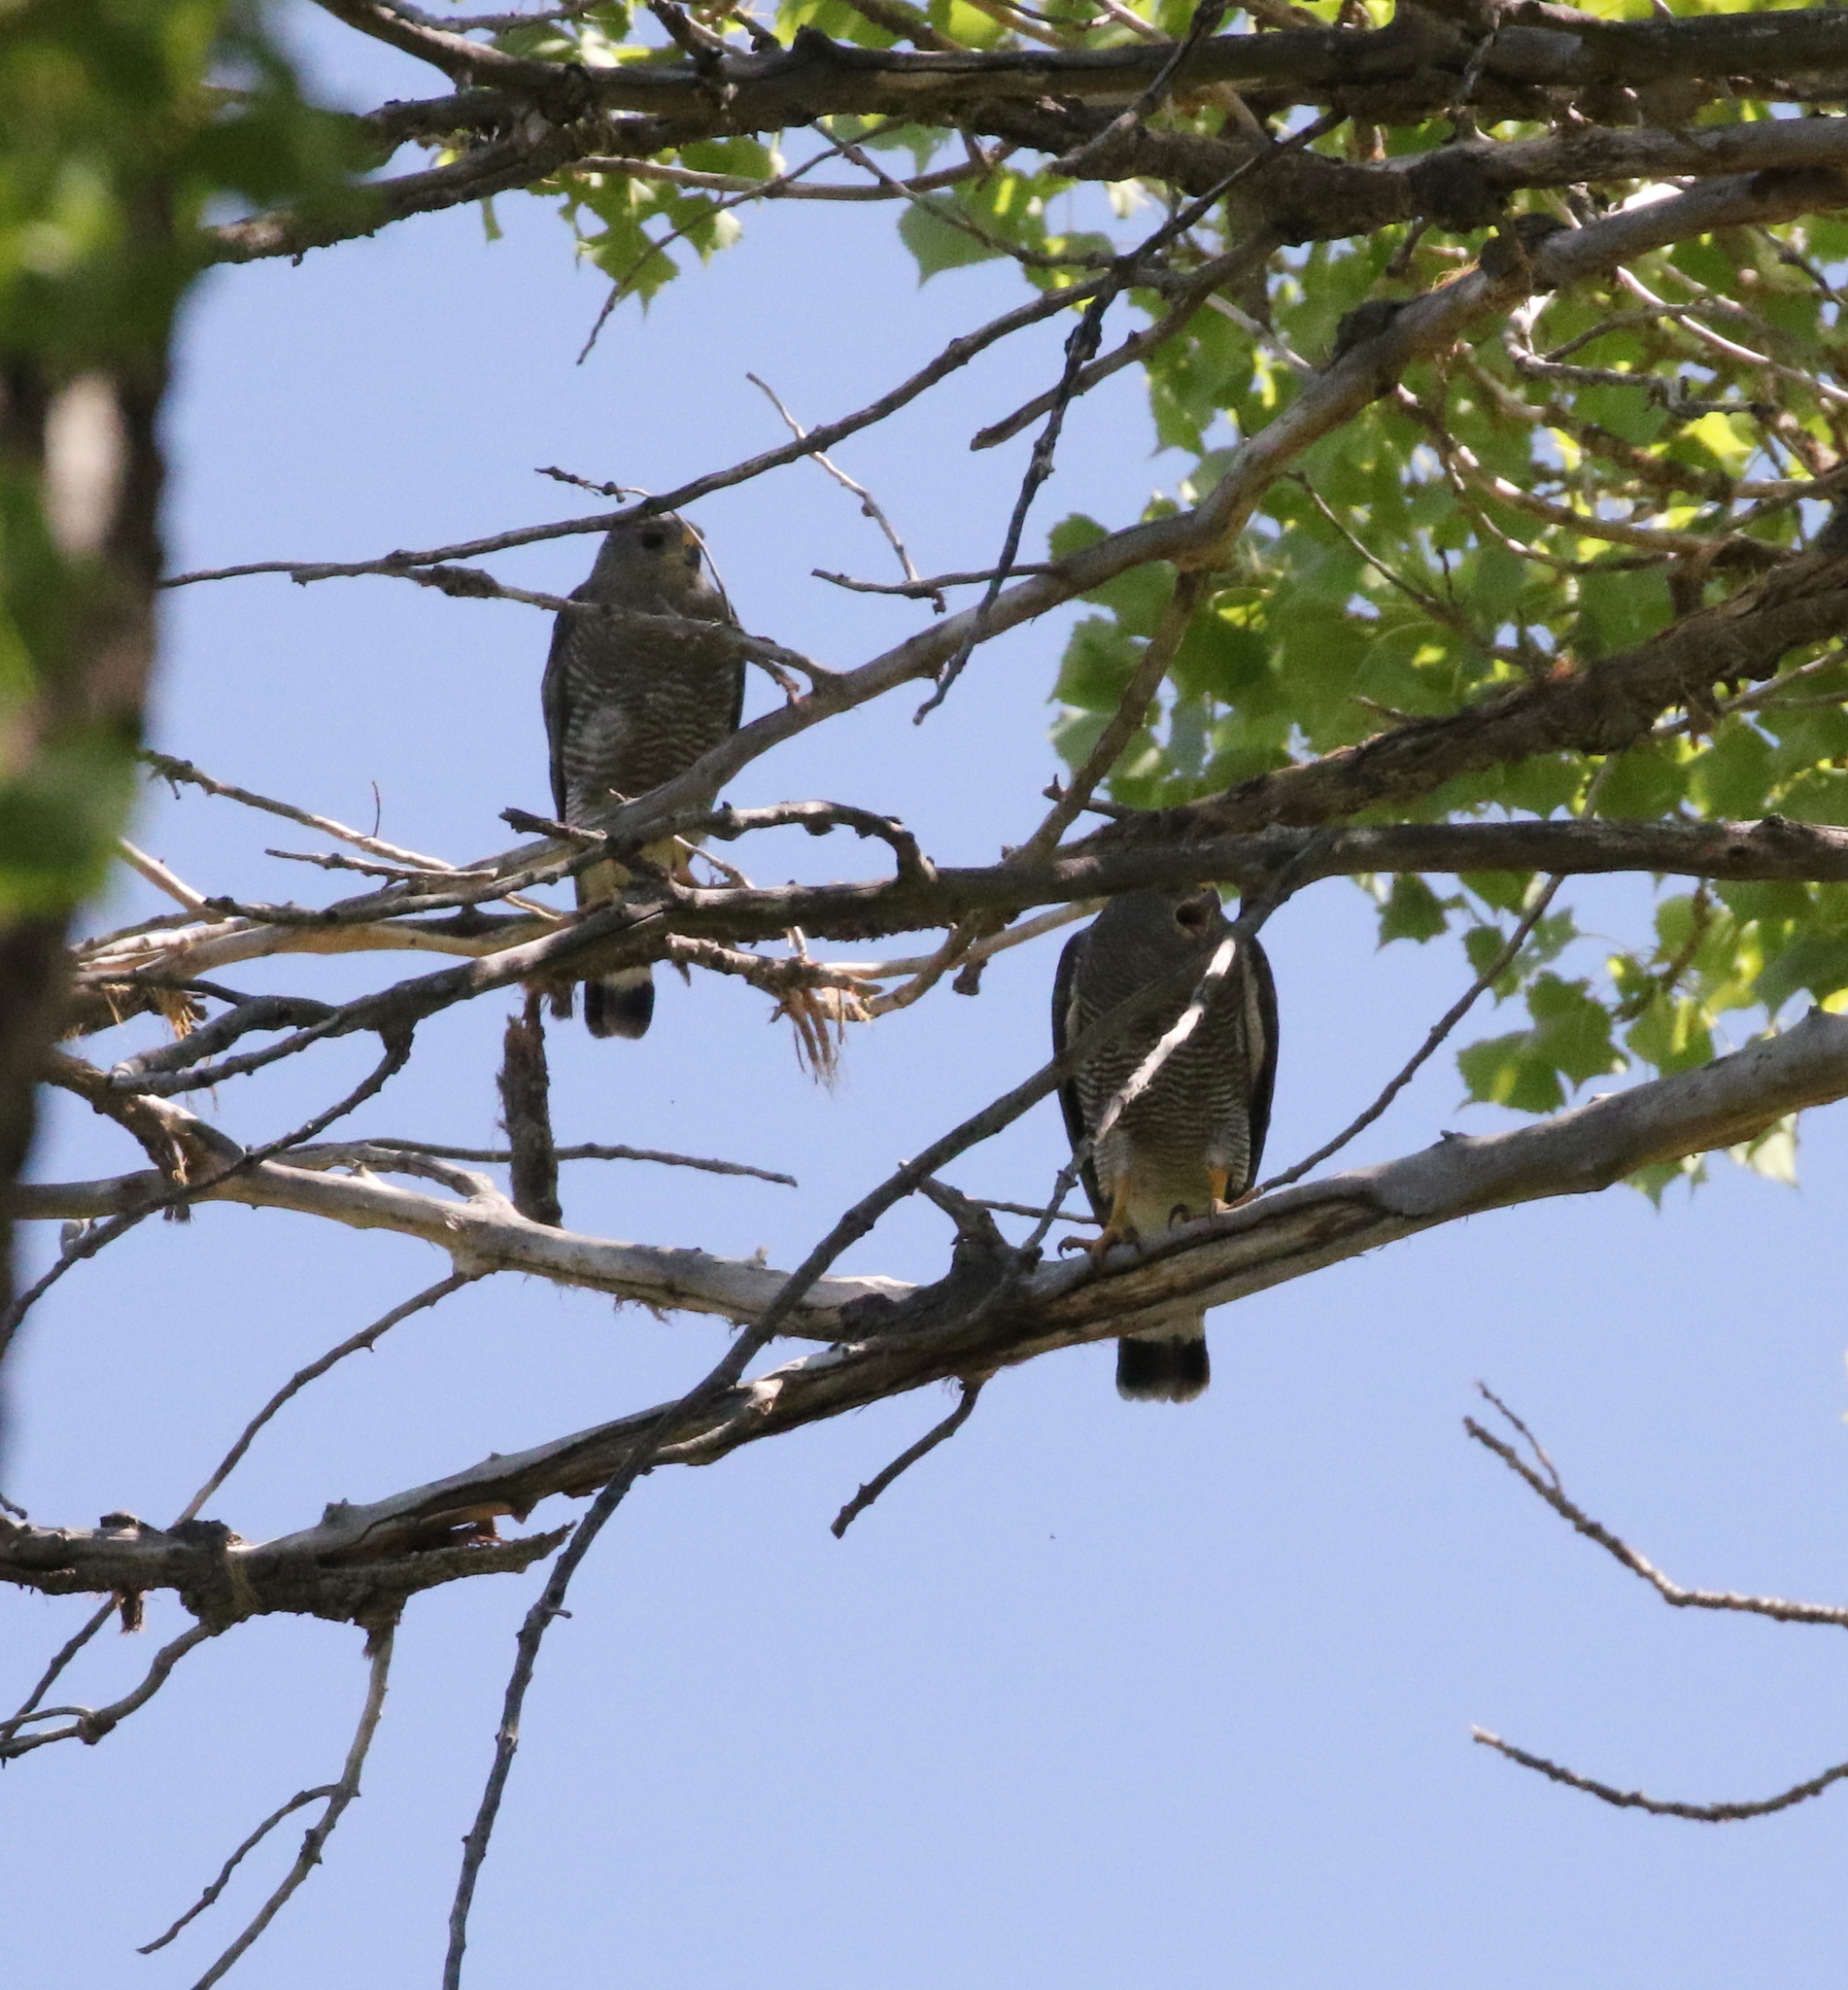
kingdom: Animalia
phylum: Chordata
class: Aves
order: Accipitriformes
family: Accipitridae
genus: Buteo
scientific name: Buteo nitidus
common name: Grey-lined hawk
